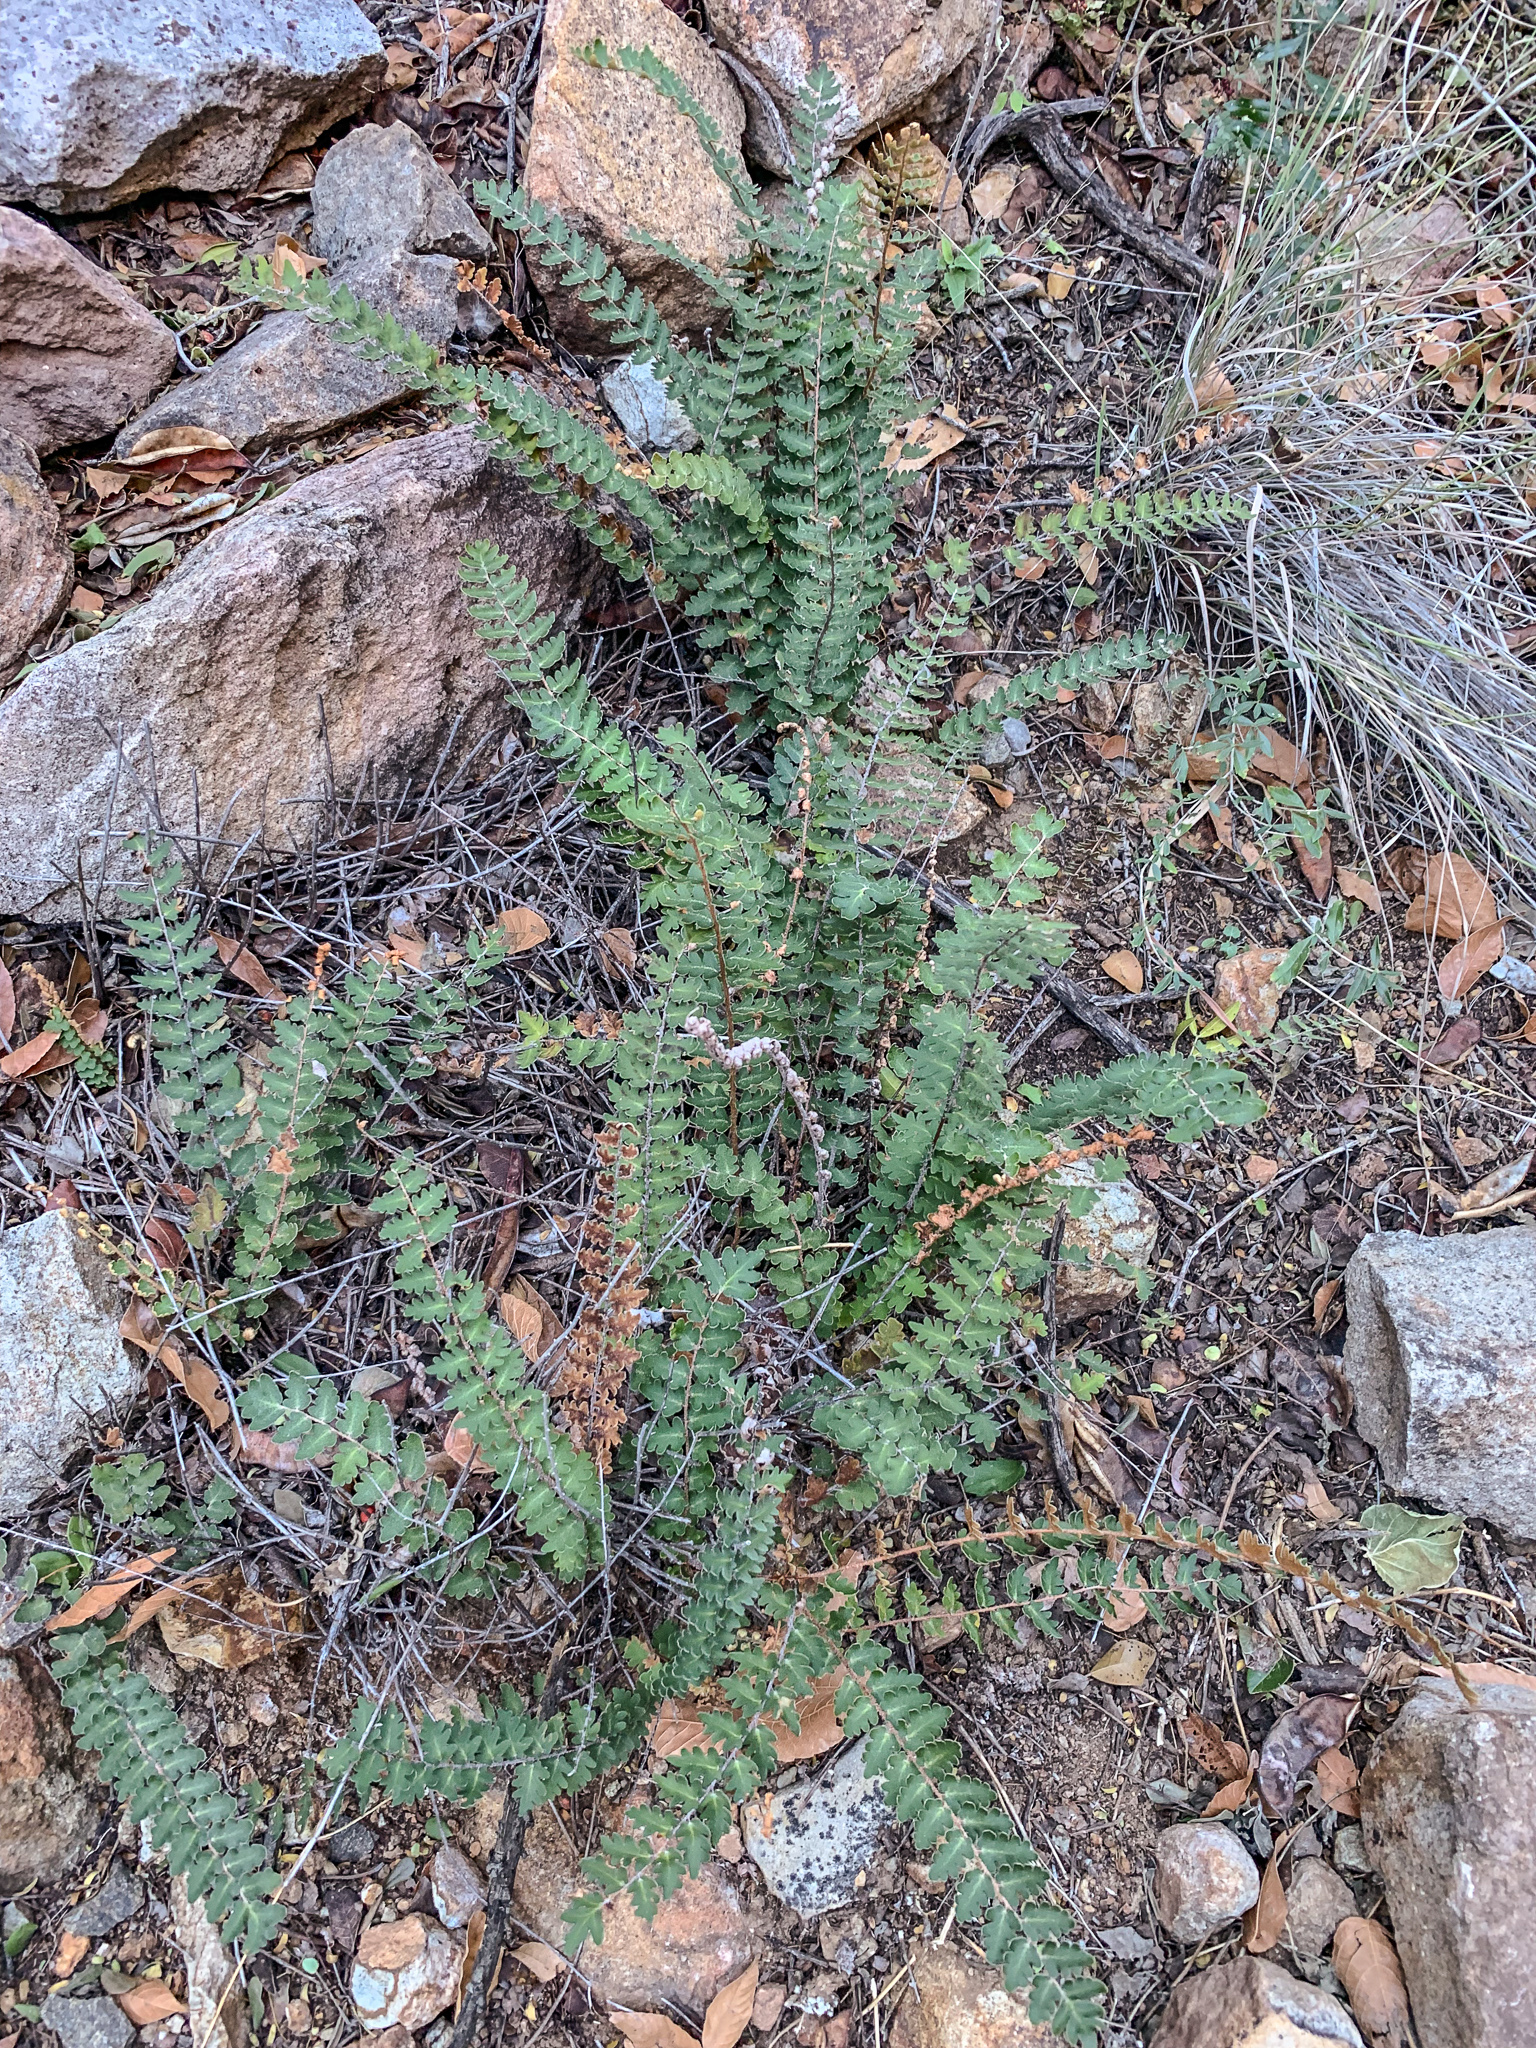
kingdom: Plantae
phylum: Tracheophyta
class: Polypodiopsida
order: Polypodiales
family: Pteridaceae
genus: Astrolepis
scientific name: Astrolepis sinuata
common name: Wavy scaly cloakfern
